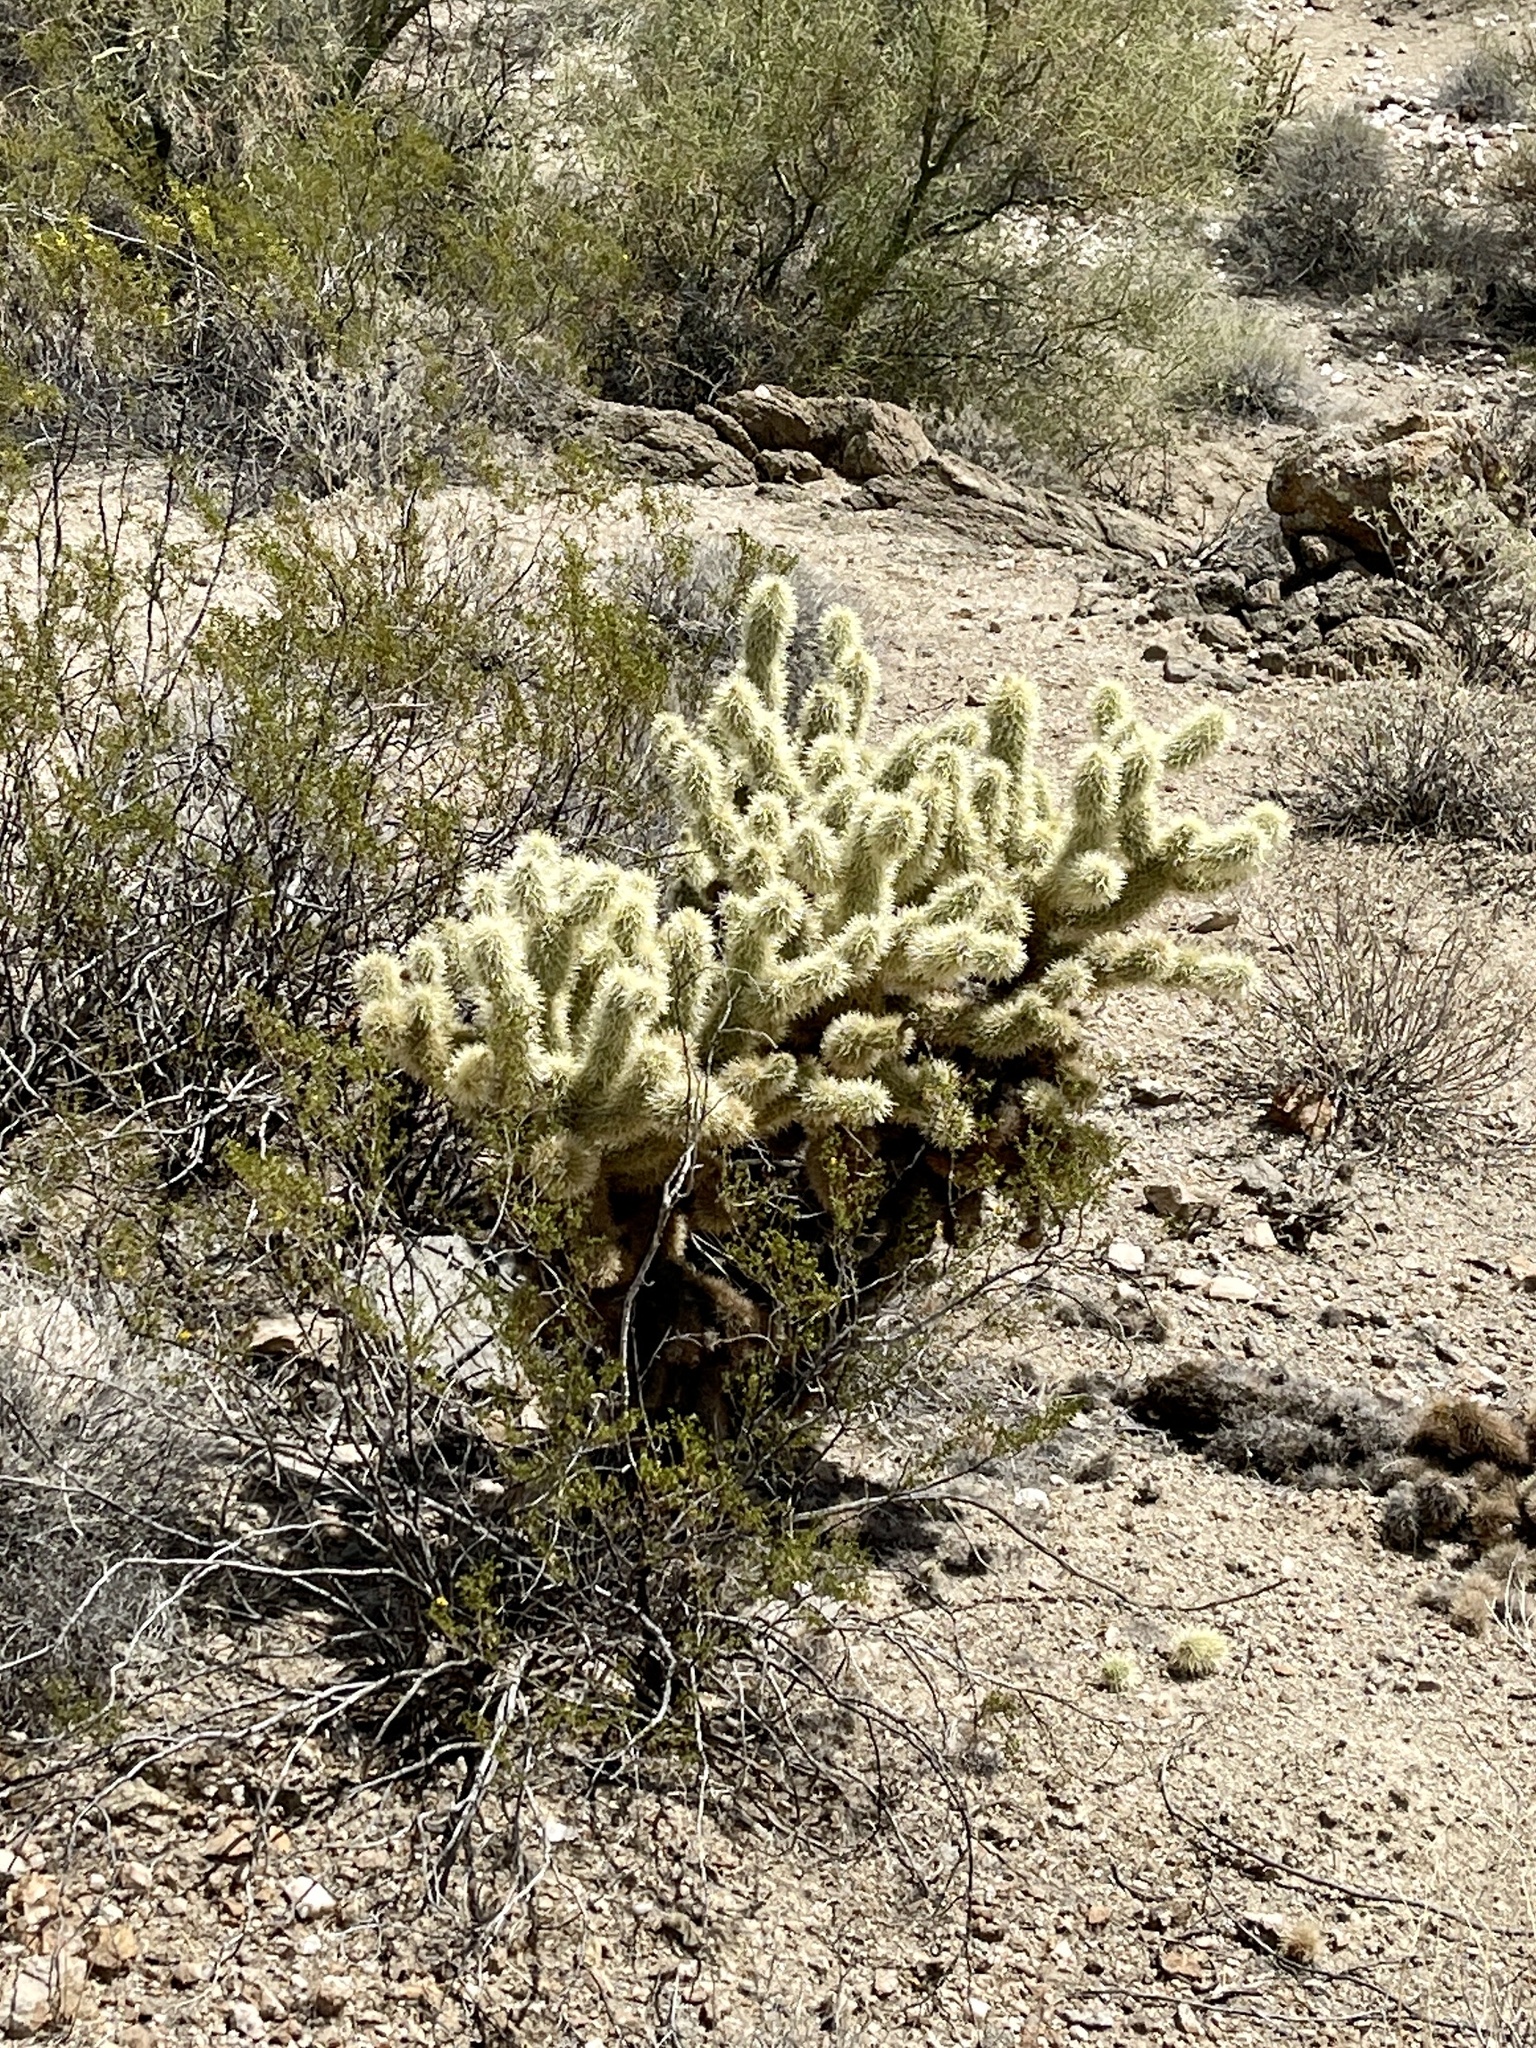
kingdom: Plantae
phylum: Tracheophyta
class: Magnoliopsida
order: Caryophyllales
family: Cactaceae
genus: Cylindropuntia
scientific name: Cylindropuntia fosbergii
